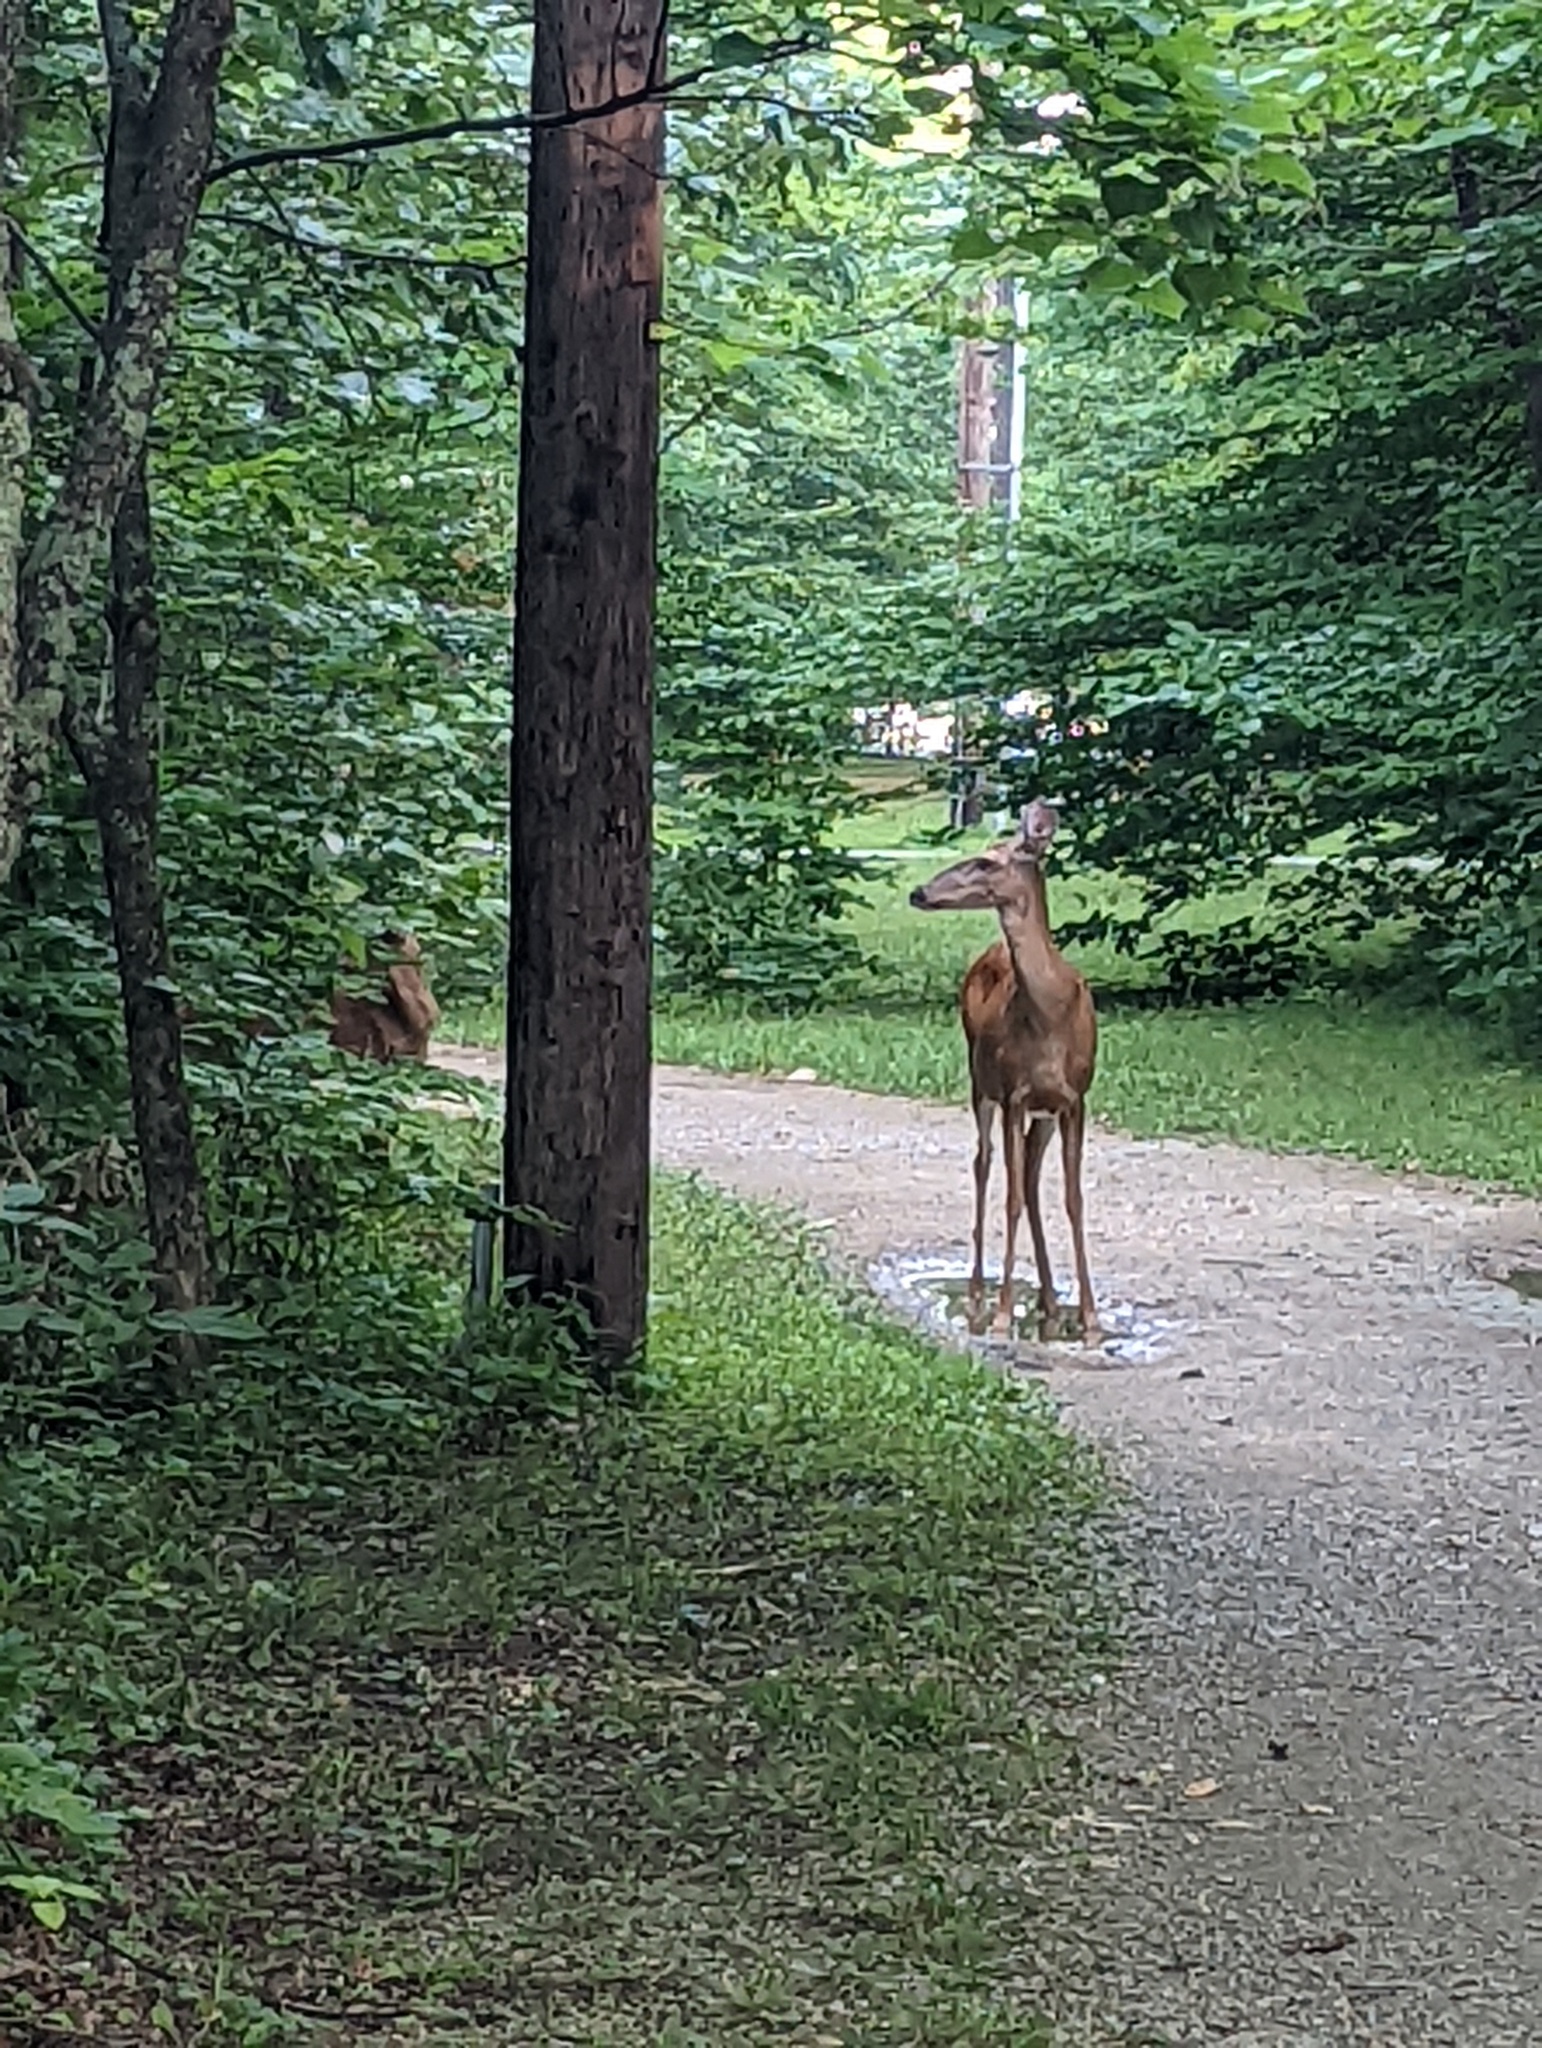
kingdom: Animalia
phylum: Chordata
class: Mammalia
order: Artiodactyla
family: Cervidae
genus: Odocoileus
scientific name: Odocoileus virginianus
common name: White-tailed deer
